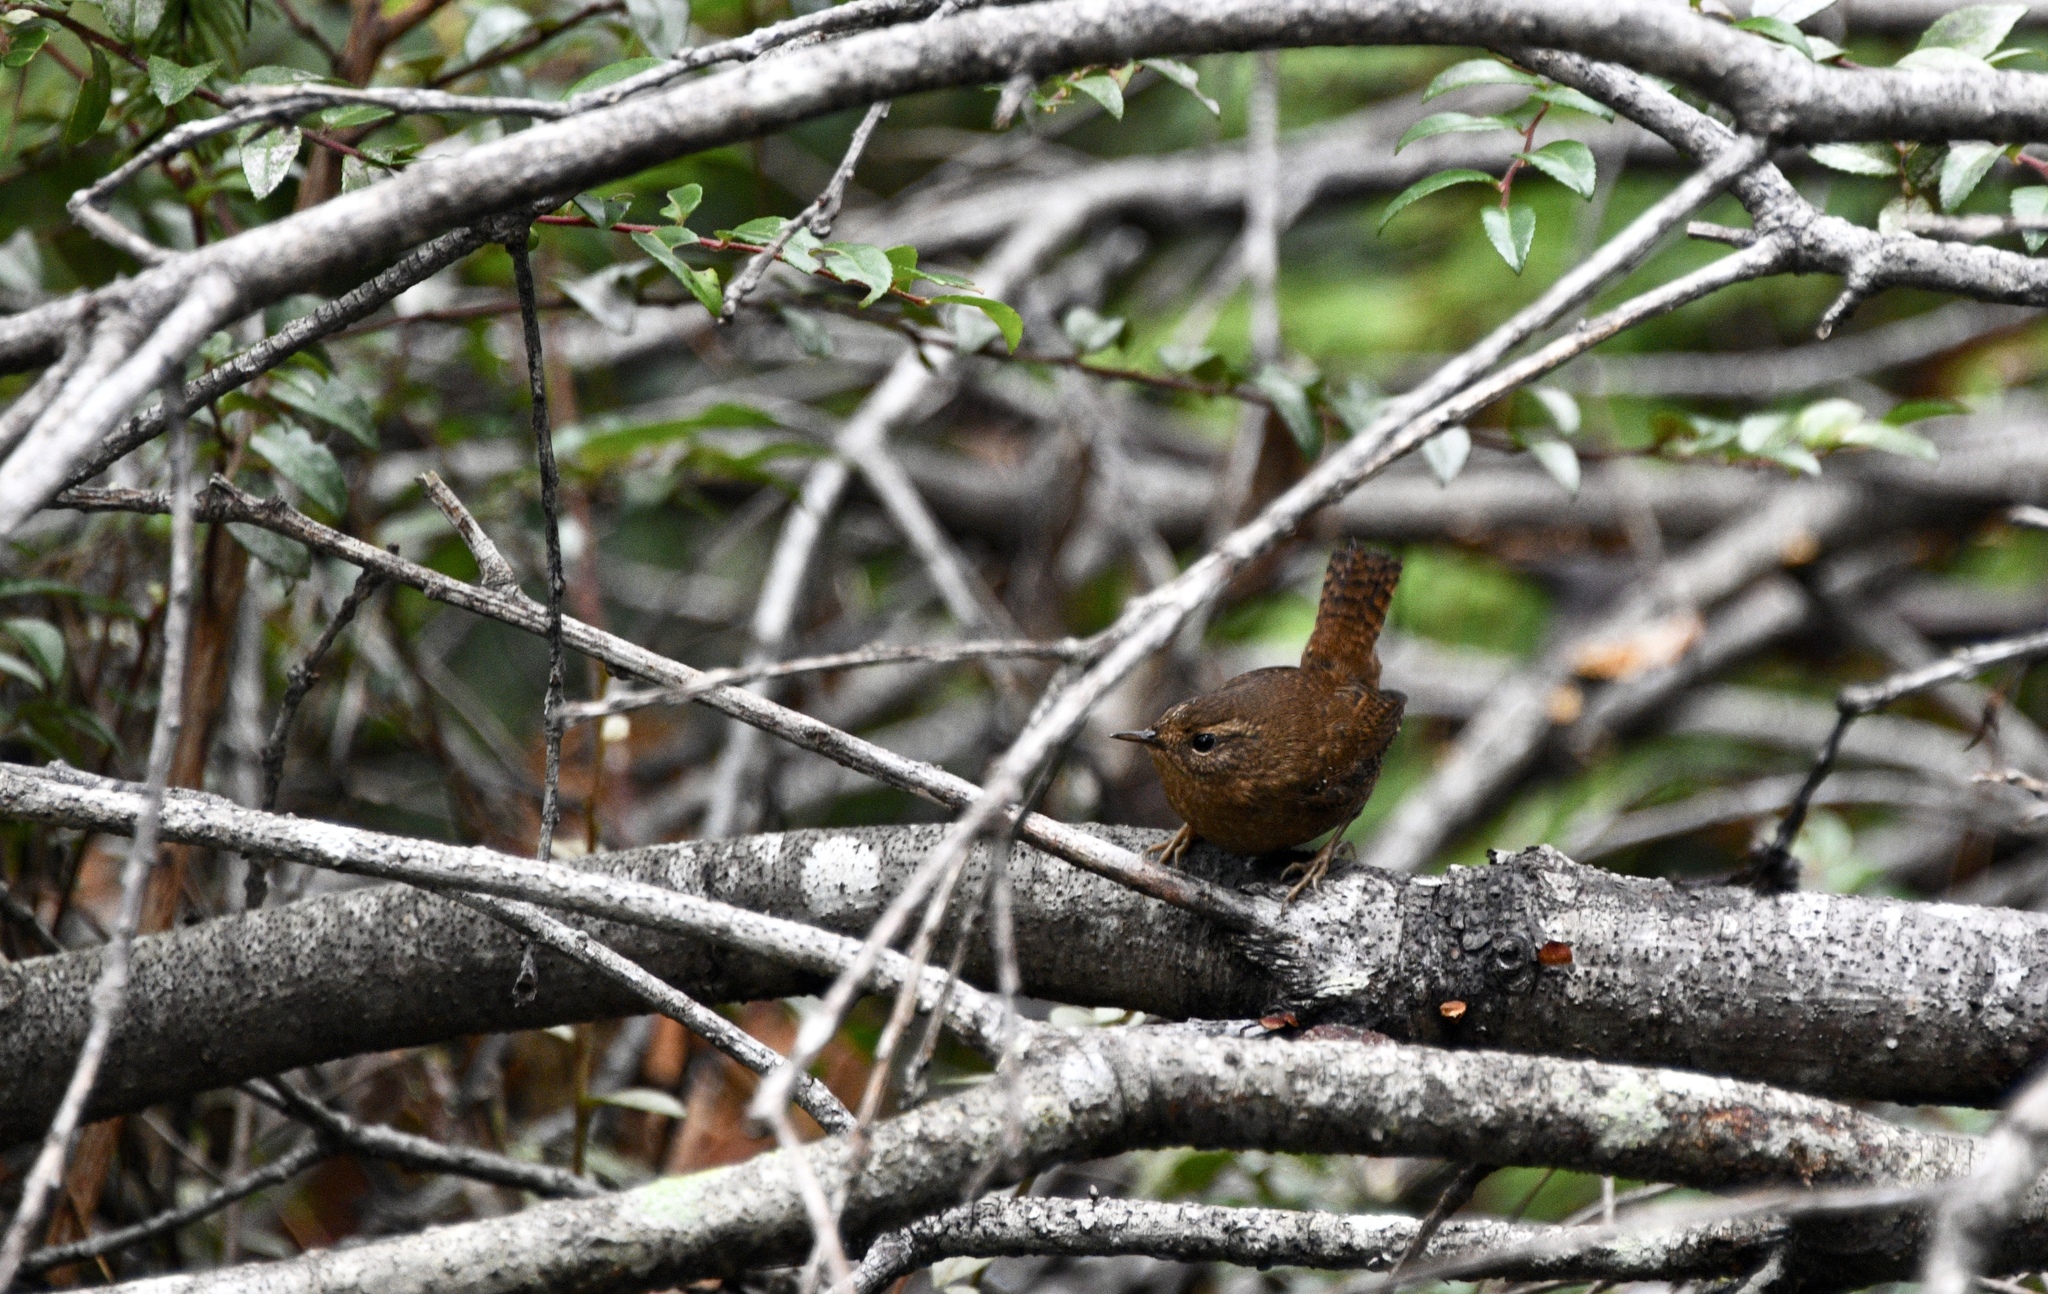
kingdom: Animalia
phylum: Chordata
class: Aves
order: Passeriformes
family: Troglodytidae
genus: Troglodytes
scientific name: Troglodytes pacificus
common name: Pacific wren
